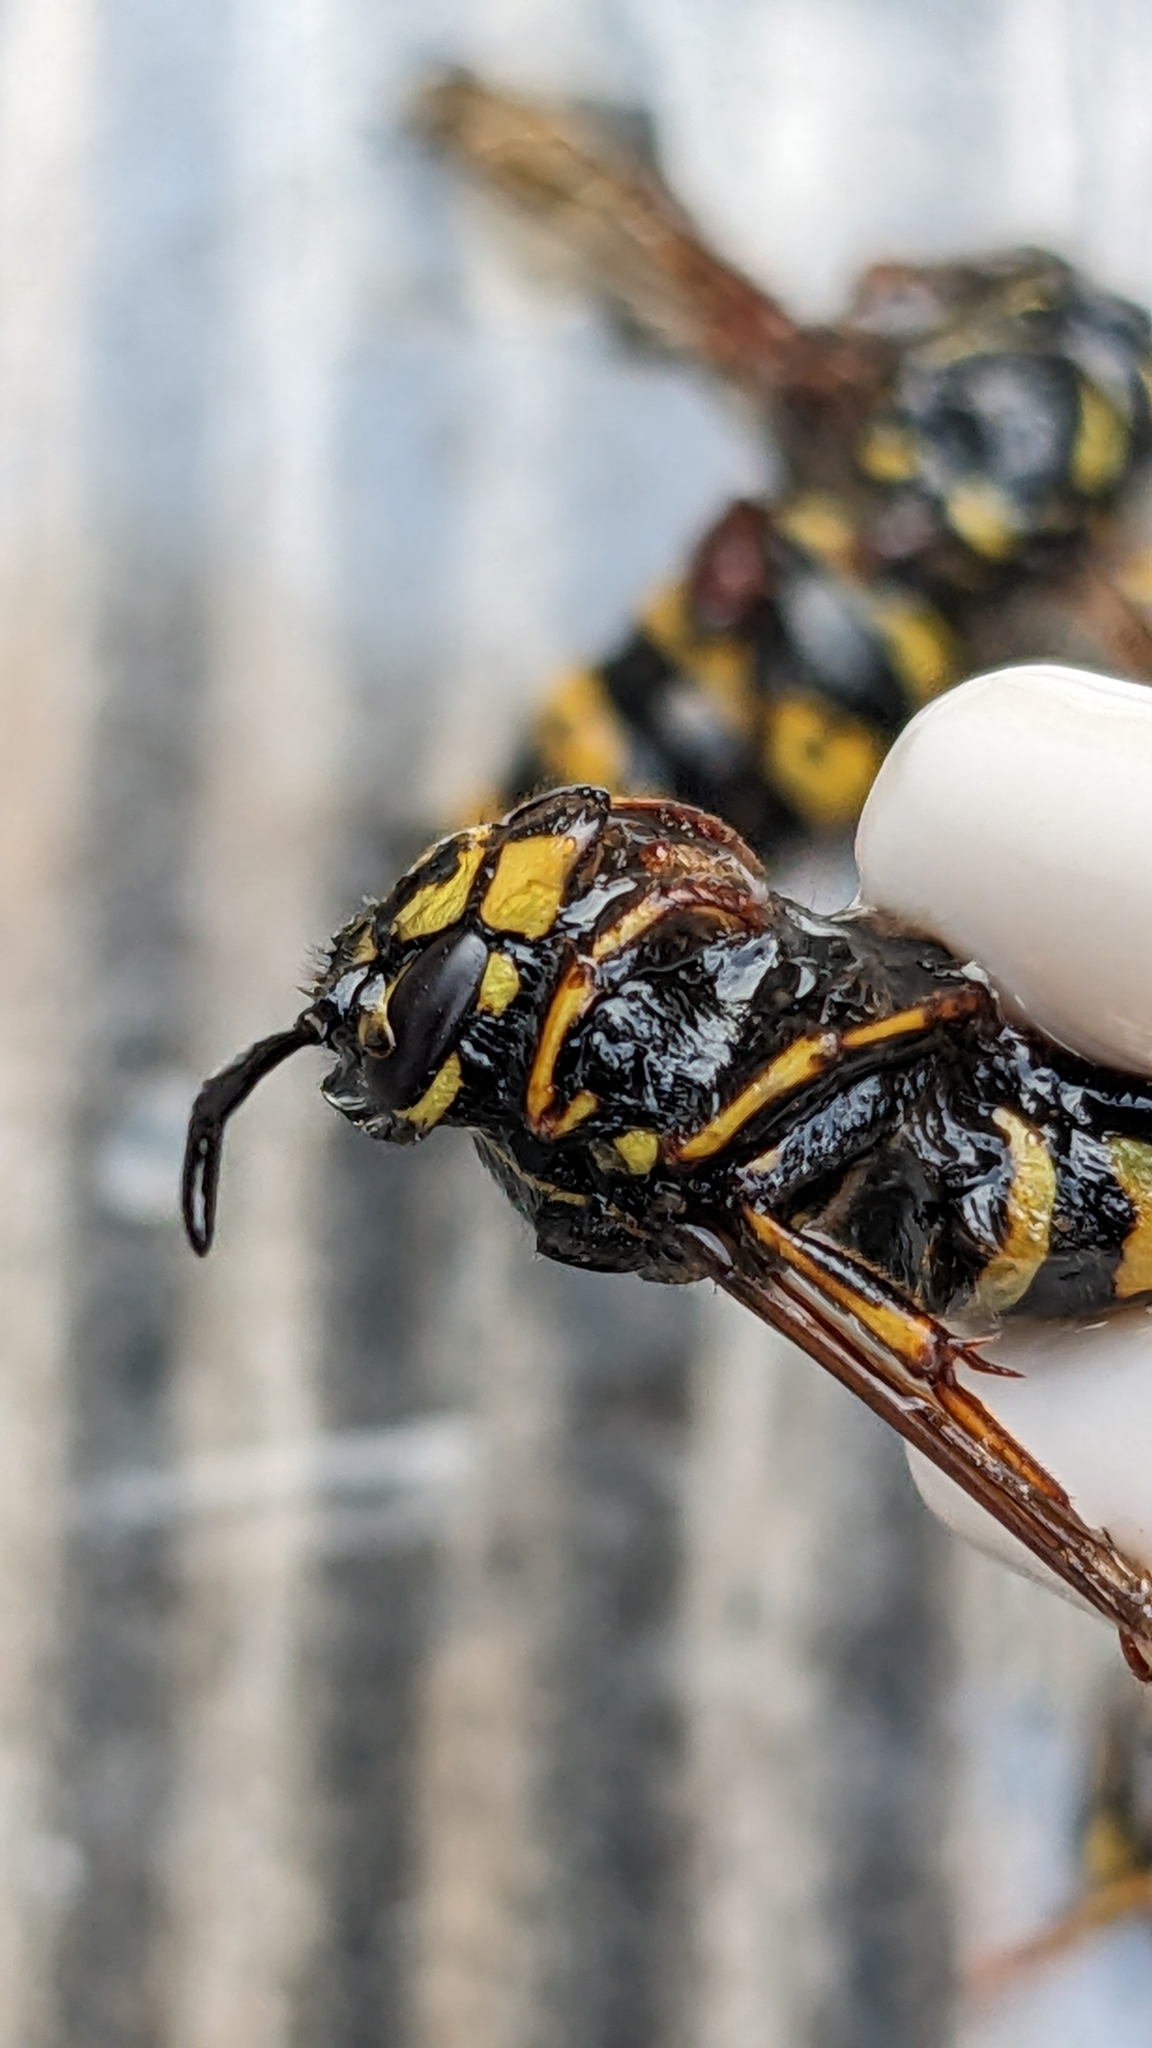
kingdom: Animalia
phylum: Arthropoda
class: Insecta
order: Hymenoptera
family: Vespidae
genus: Vespula
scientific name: Vespula vulgaris
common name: Common wasp
